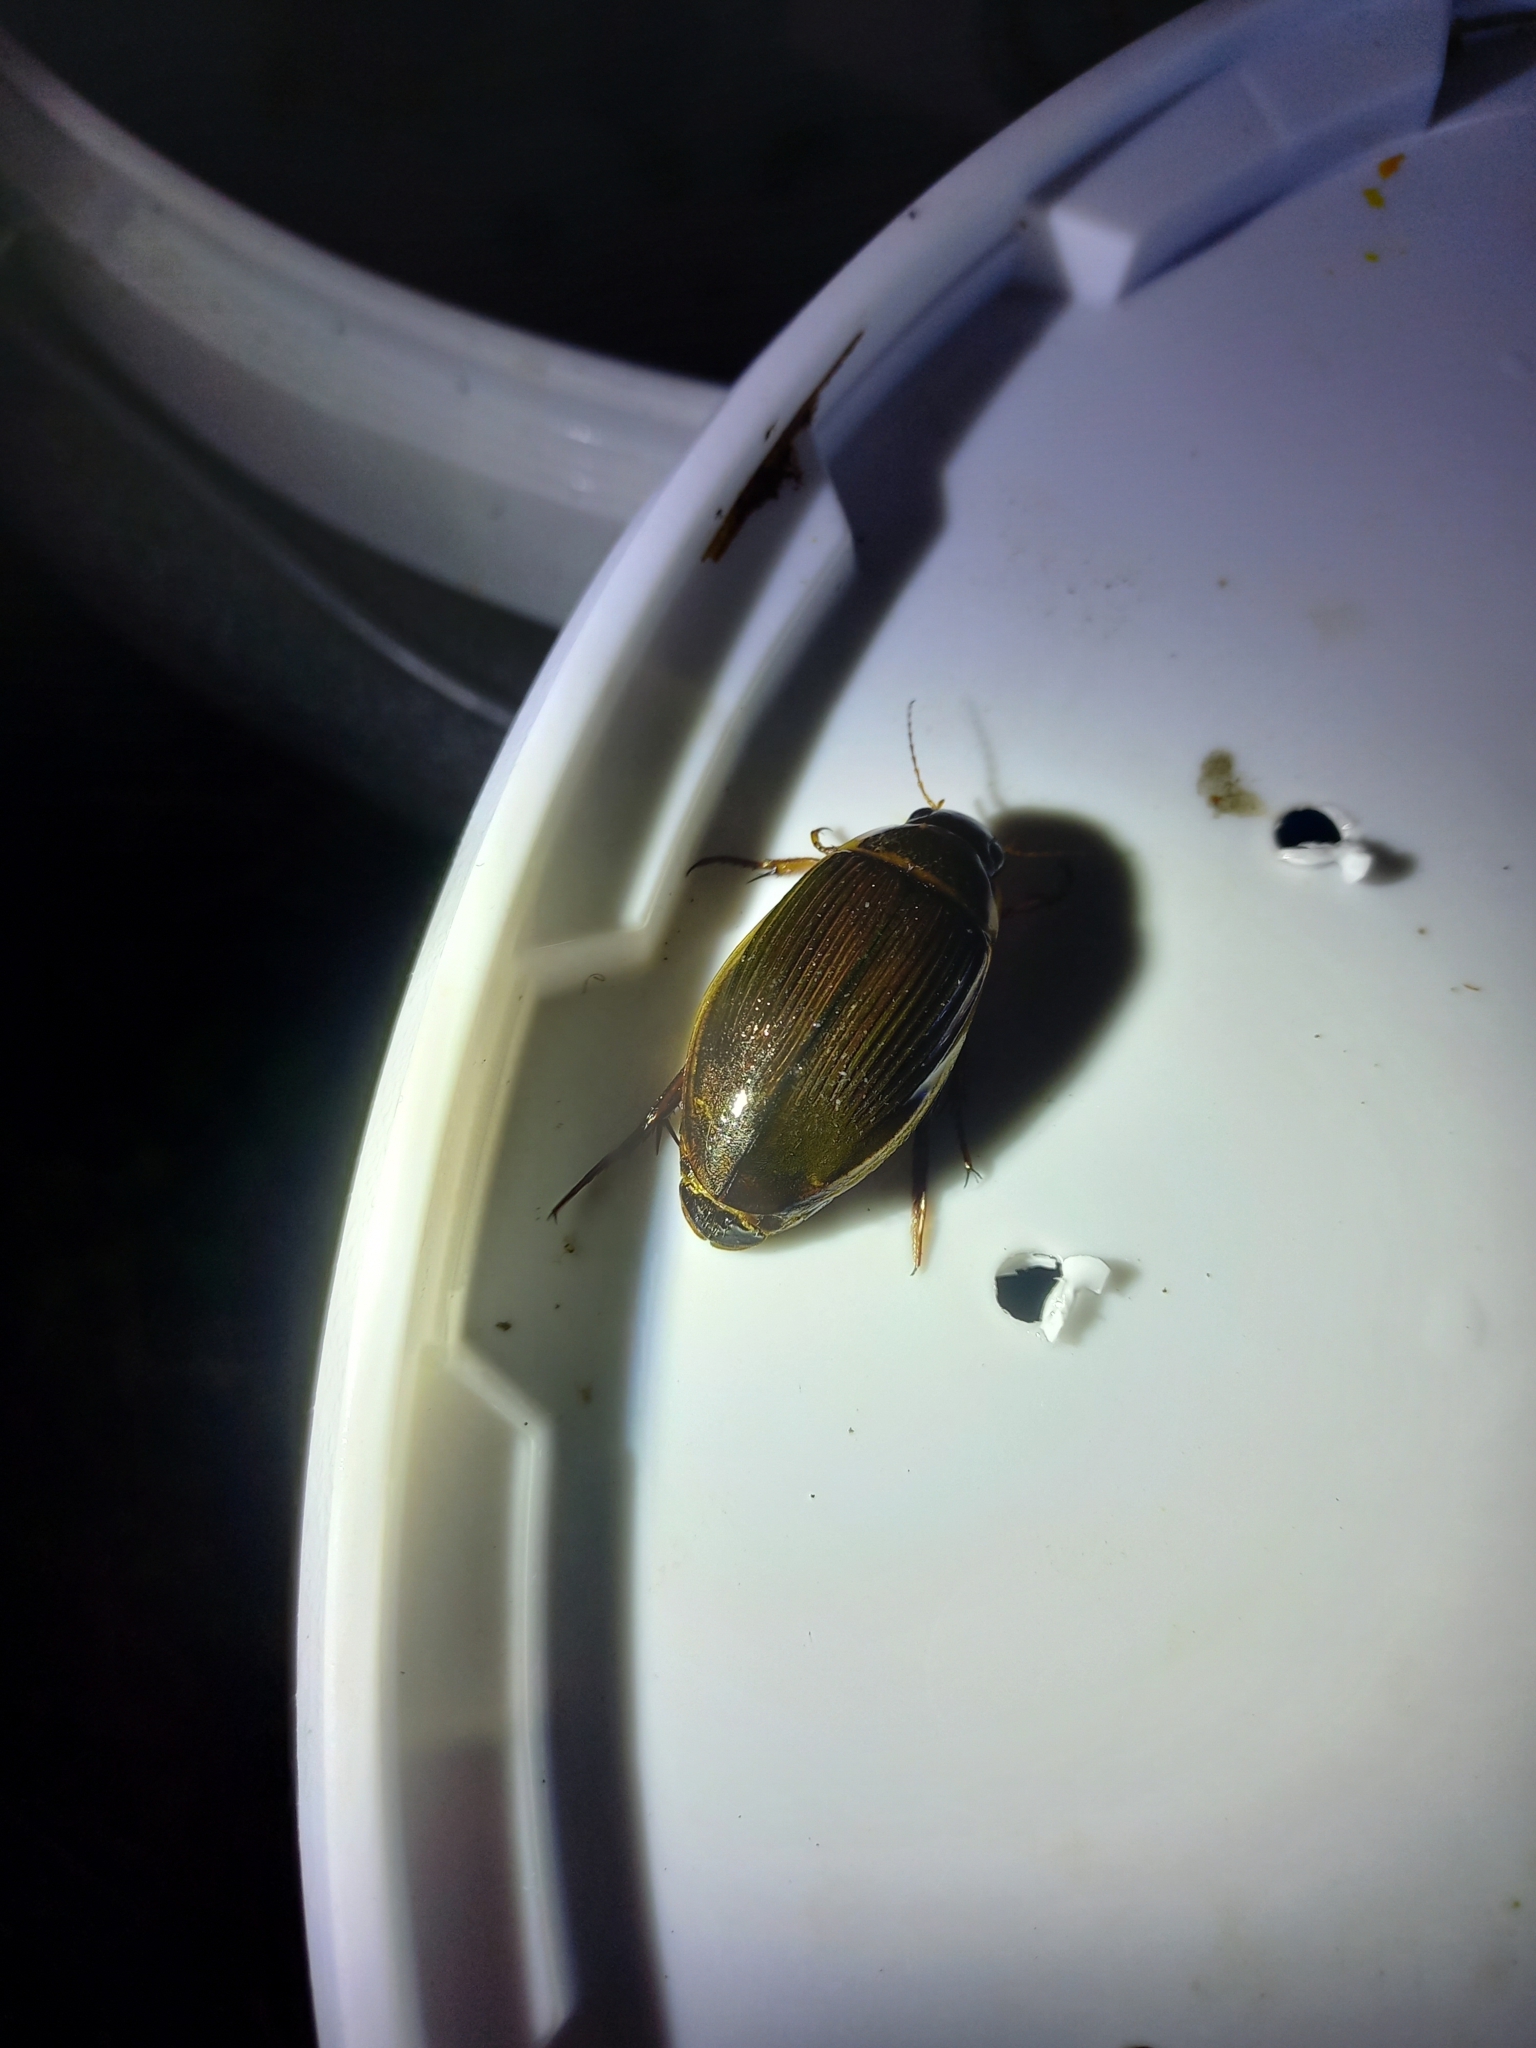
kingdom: Animalia
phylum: Arthropoda
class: Insecta
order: Coleoptera
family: Dytiscidae
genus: Dytiscus
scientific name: Dytiscus marginalis
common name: Great water beetle
